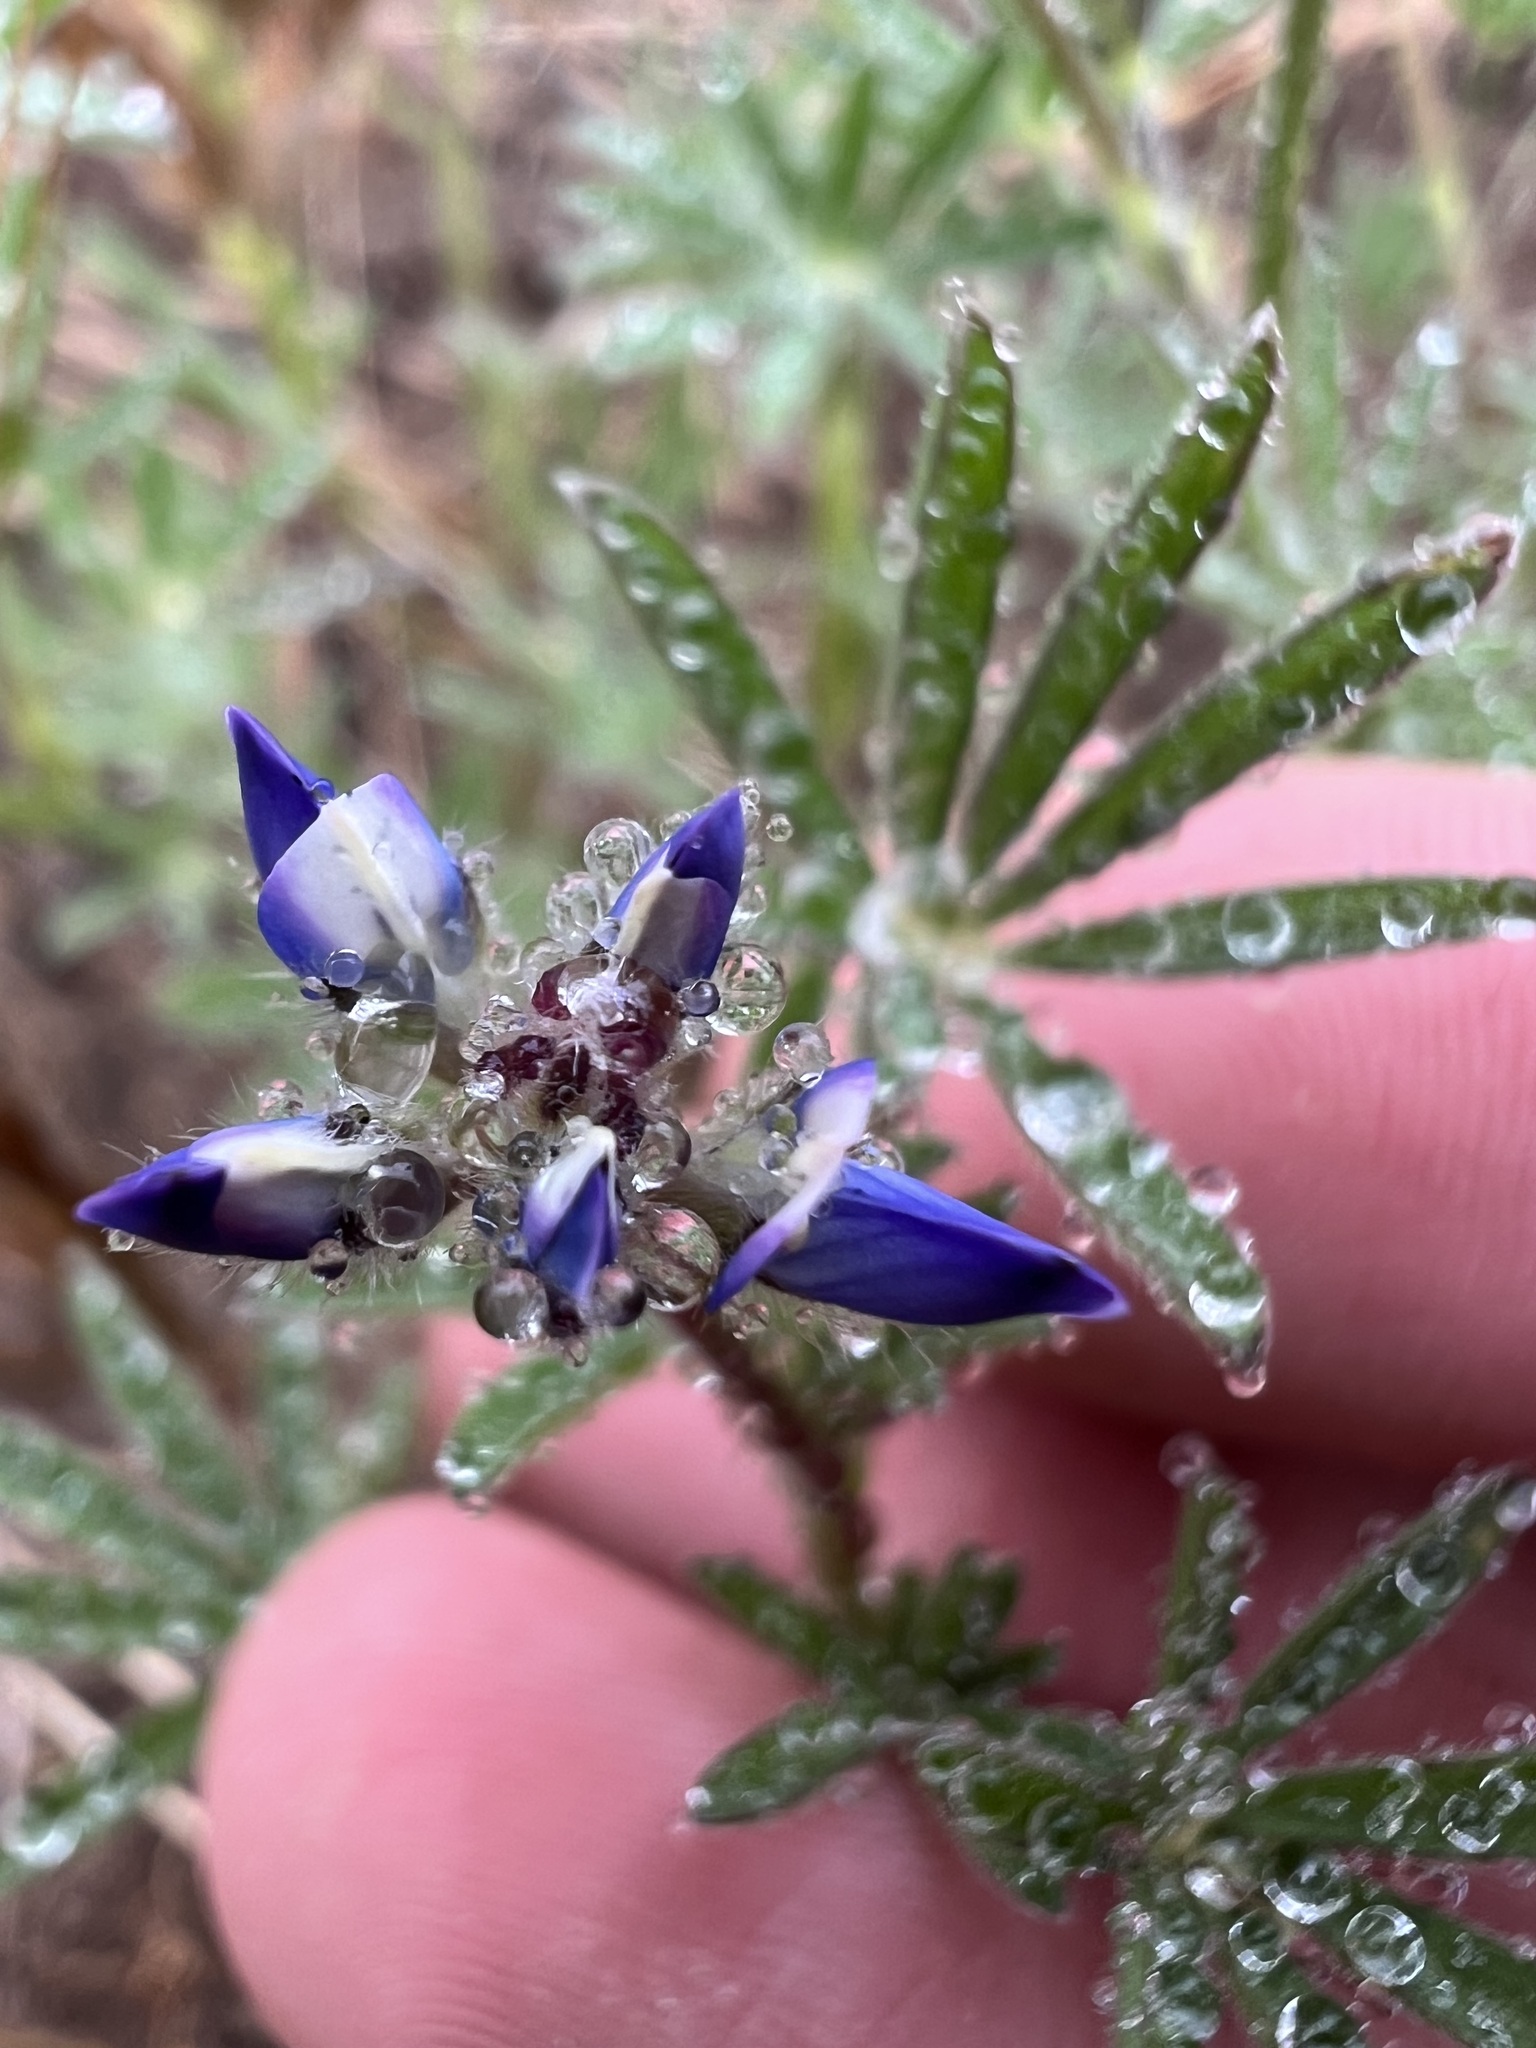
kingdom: Plantae
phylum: Tracheophyta
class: Magnoliopsida
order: Fabales
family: Fabaceae
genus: Lupinus
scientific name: Lupinus bicolor
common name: Miniature lupine
